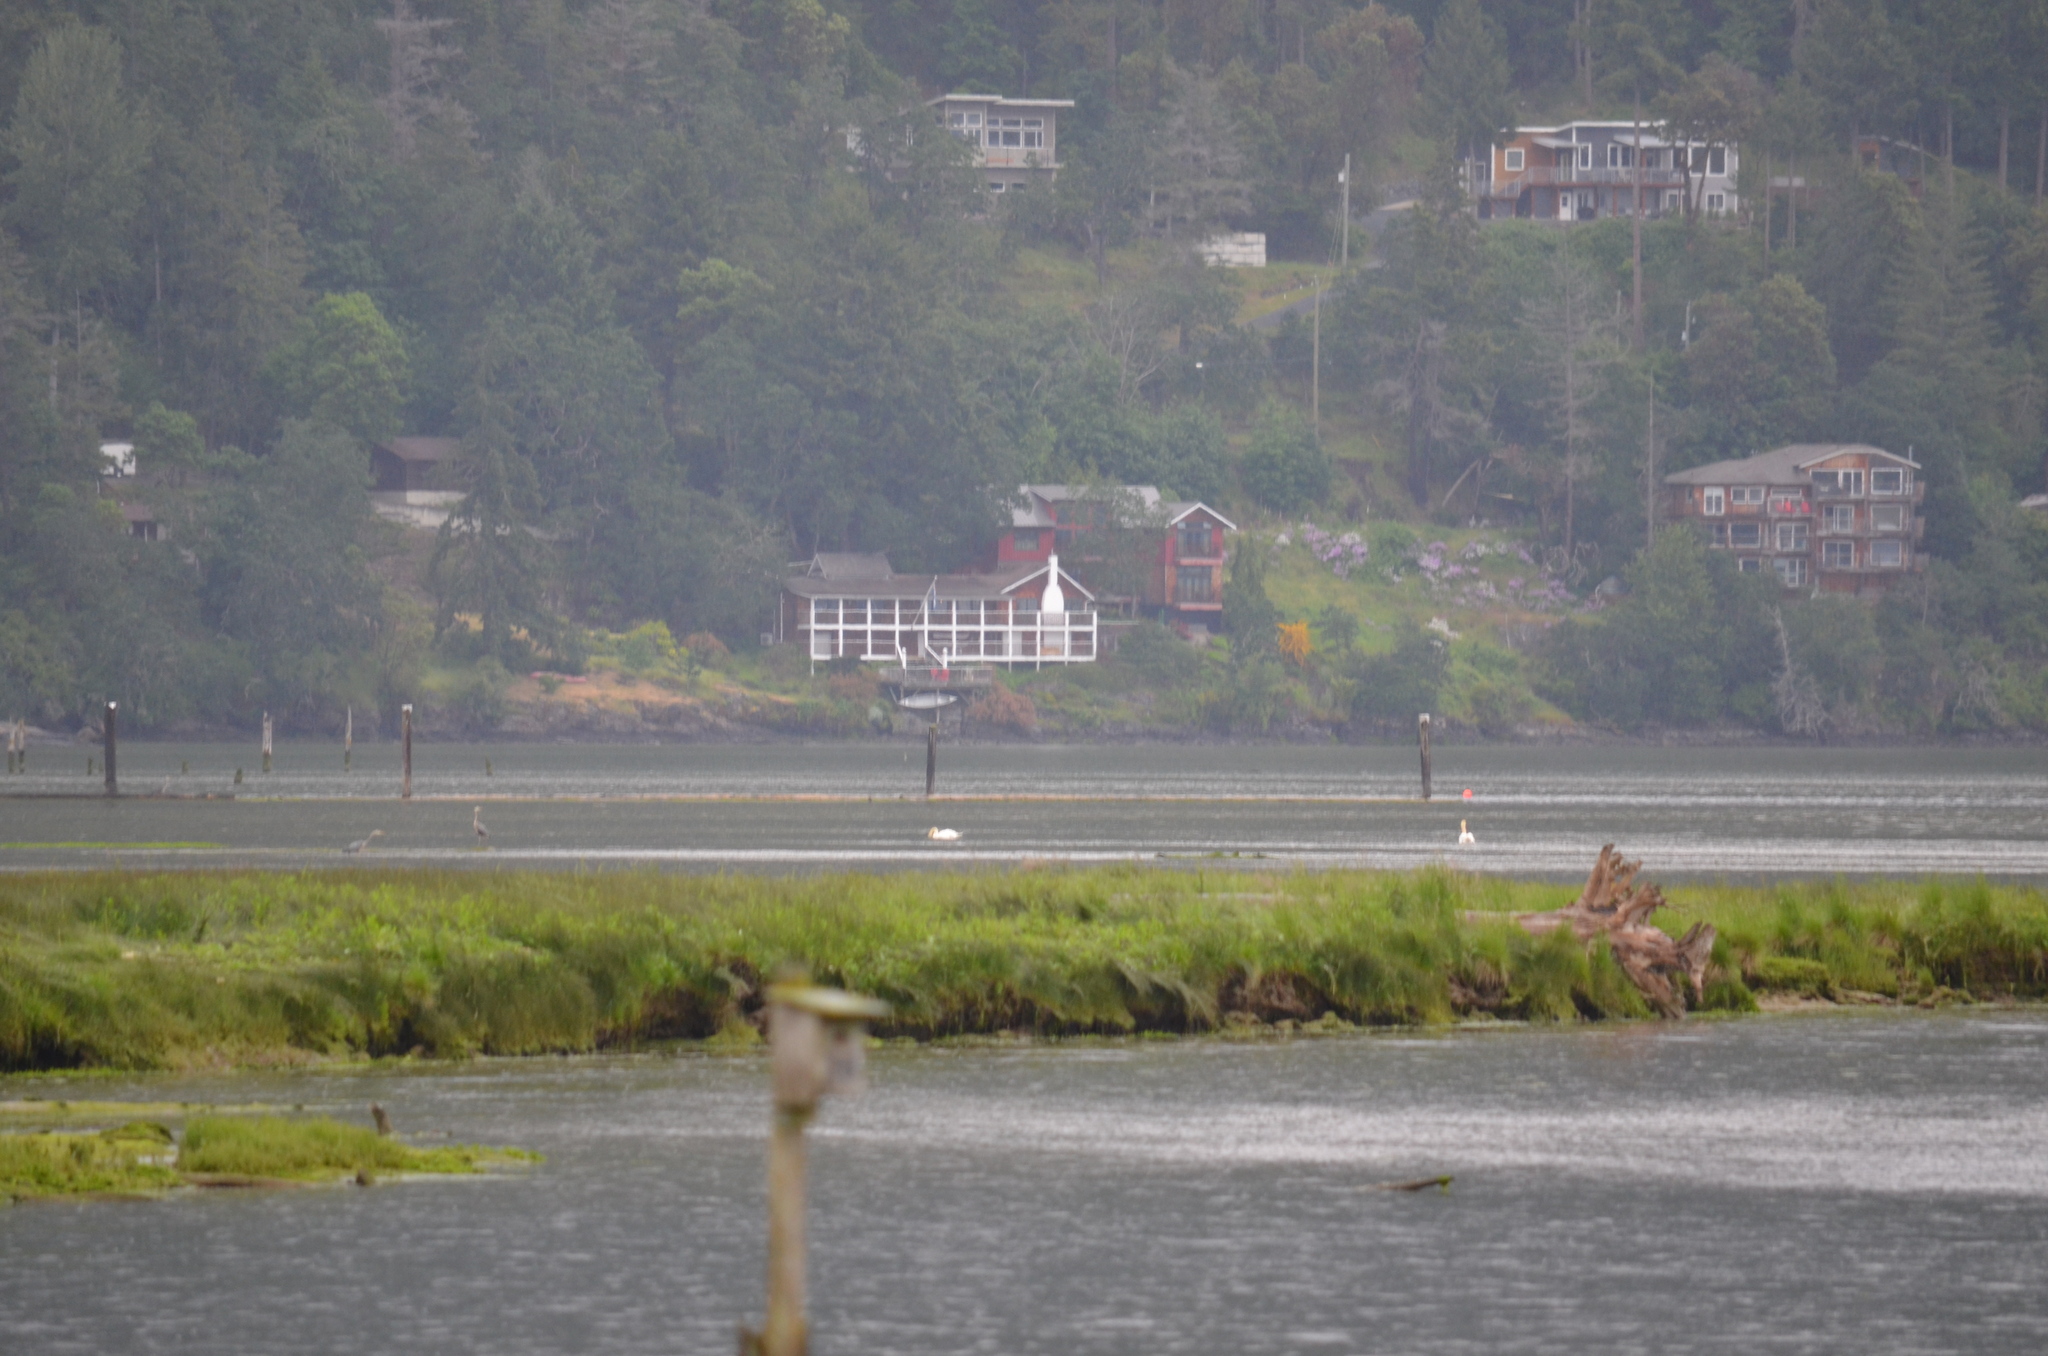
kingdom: Animalia
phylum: Chordata
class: Aves
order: Pelecaniformes
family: Ardeidae
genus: Ardea
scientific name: Ardea herodias
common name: Great blue heron
